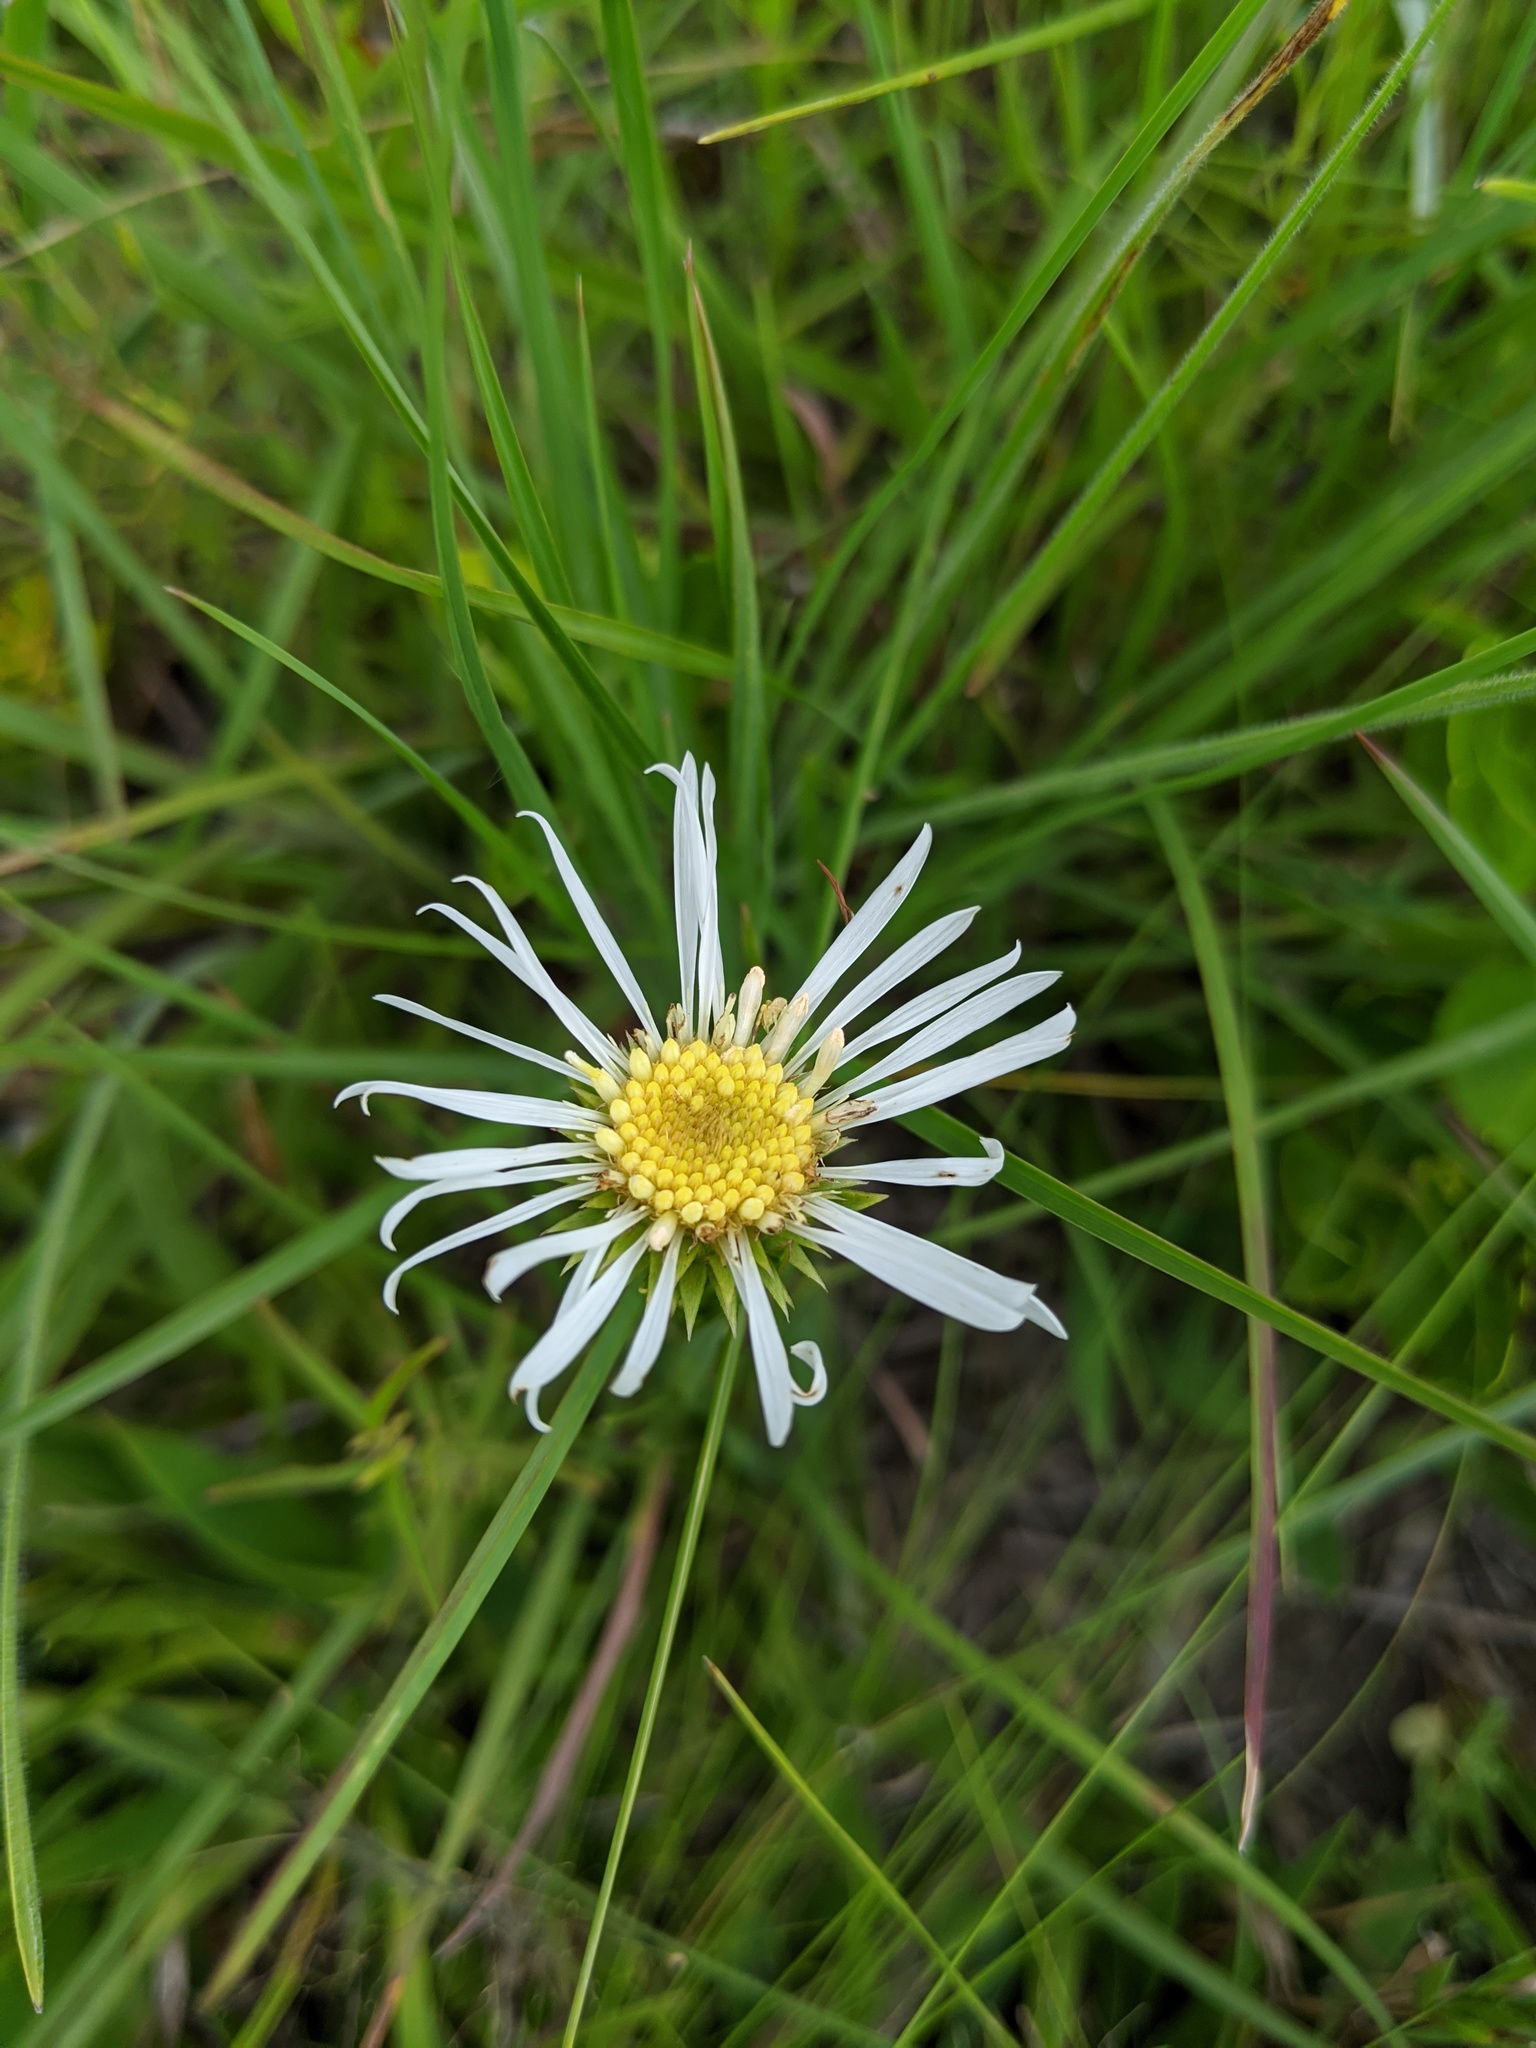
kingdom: Plantae
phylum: Tracheophyta
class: Magnoliopsida
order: Asterales
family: Asteraceae
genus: Eurybia
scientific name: Eurybia eryngiifolia
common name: Thistle-leaf aster
